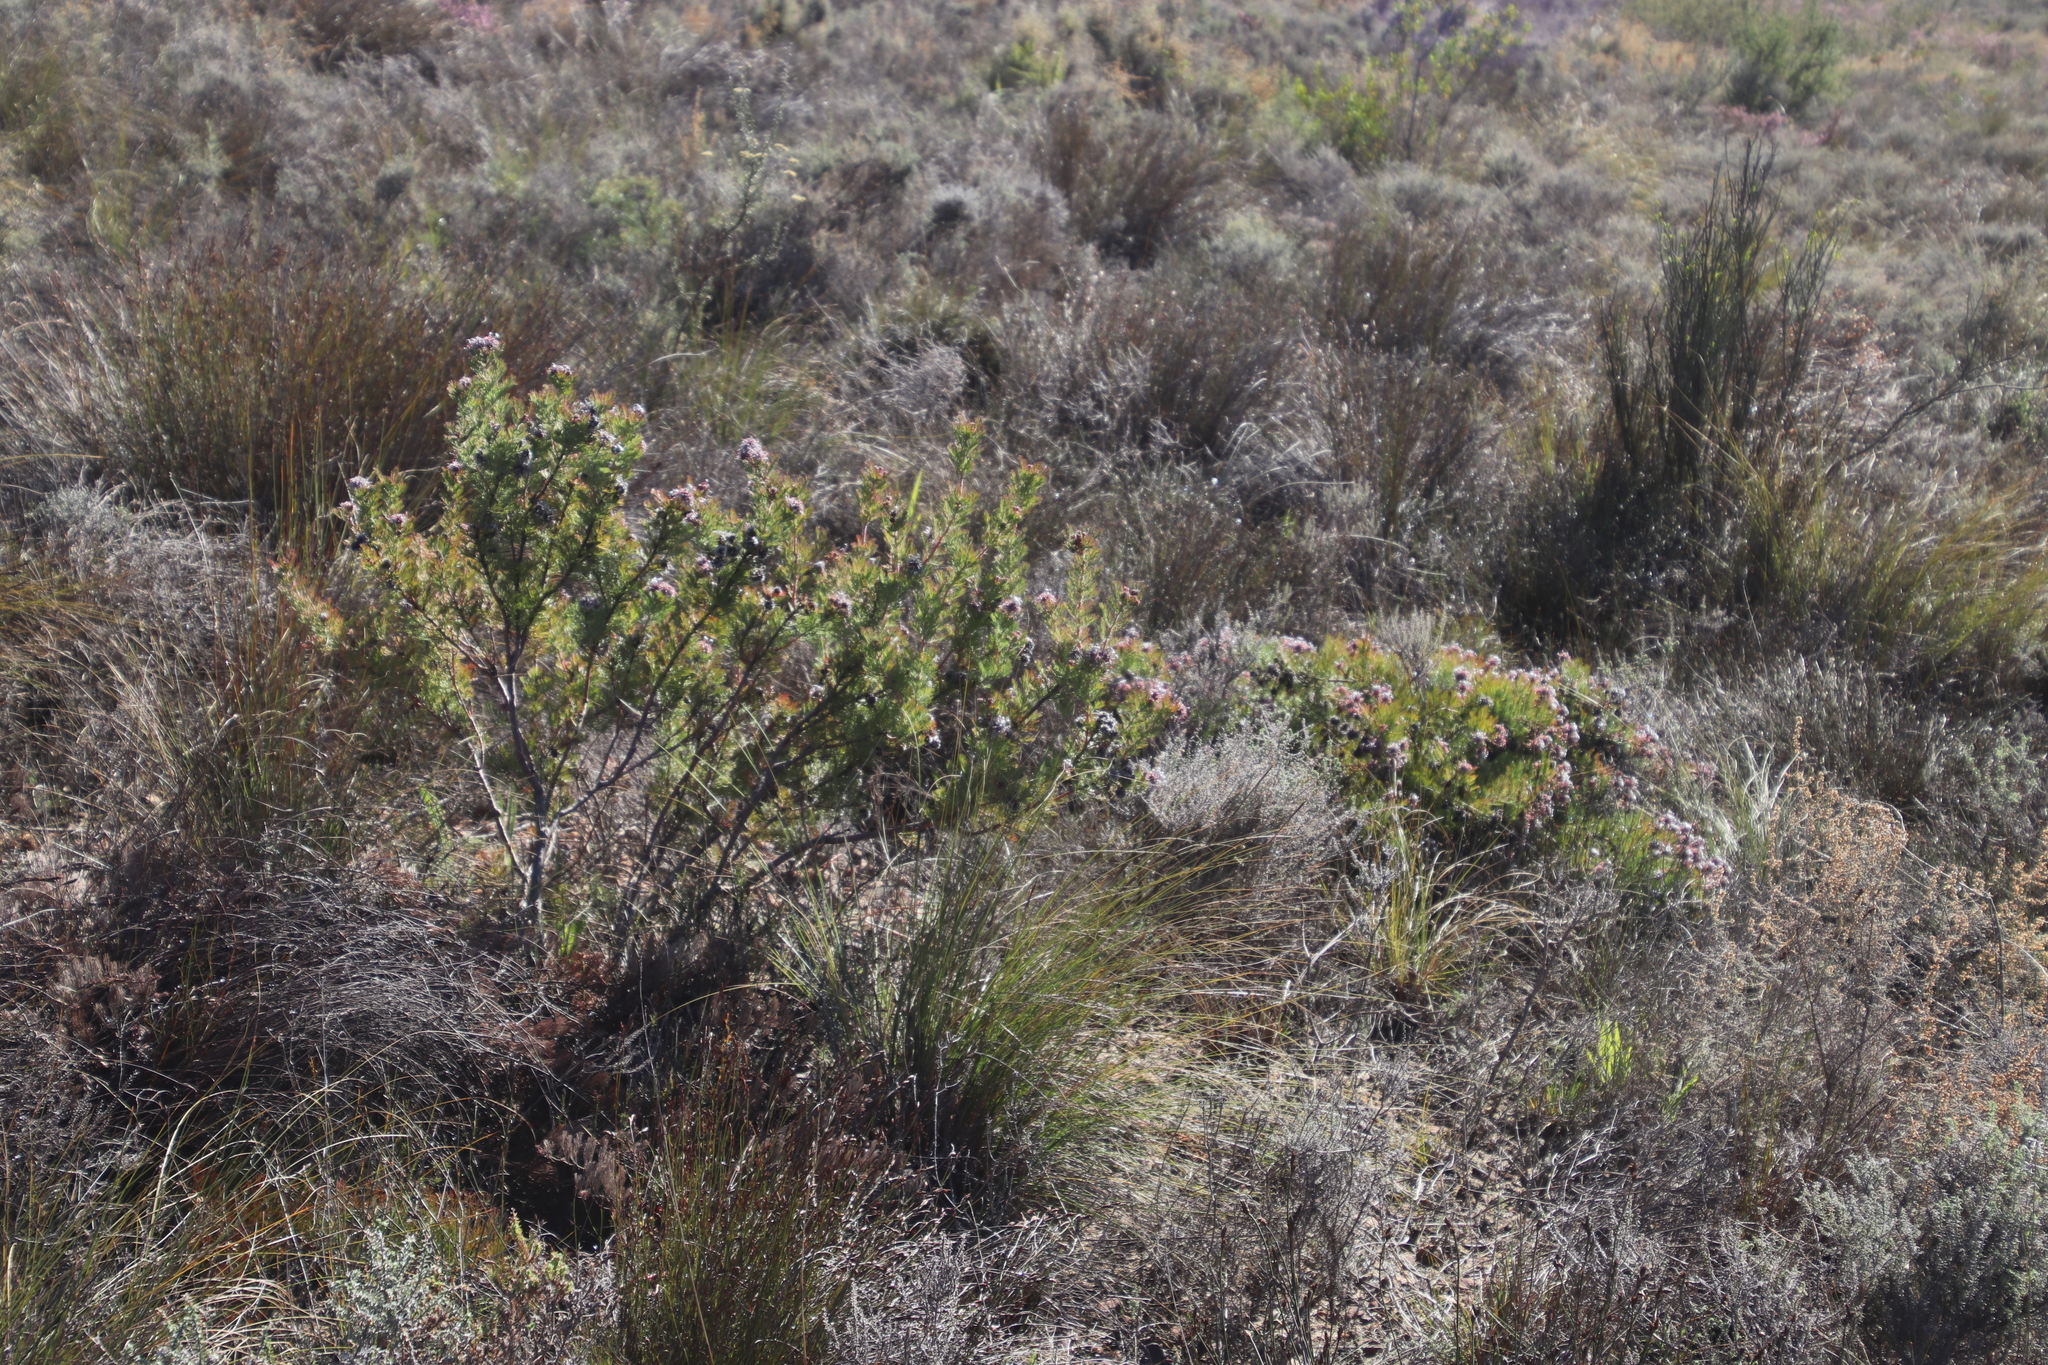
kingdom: Plantae
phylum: Tracheophyta
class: Magnoliopsida
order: Proteales
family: Proteaceae
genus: Serruria
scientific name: Serruria pedunculata
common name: Fan-leaf spiderhead
